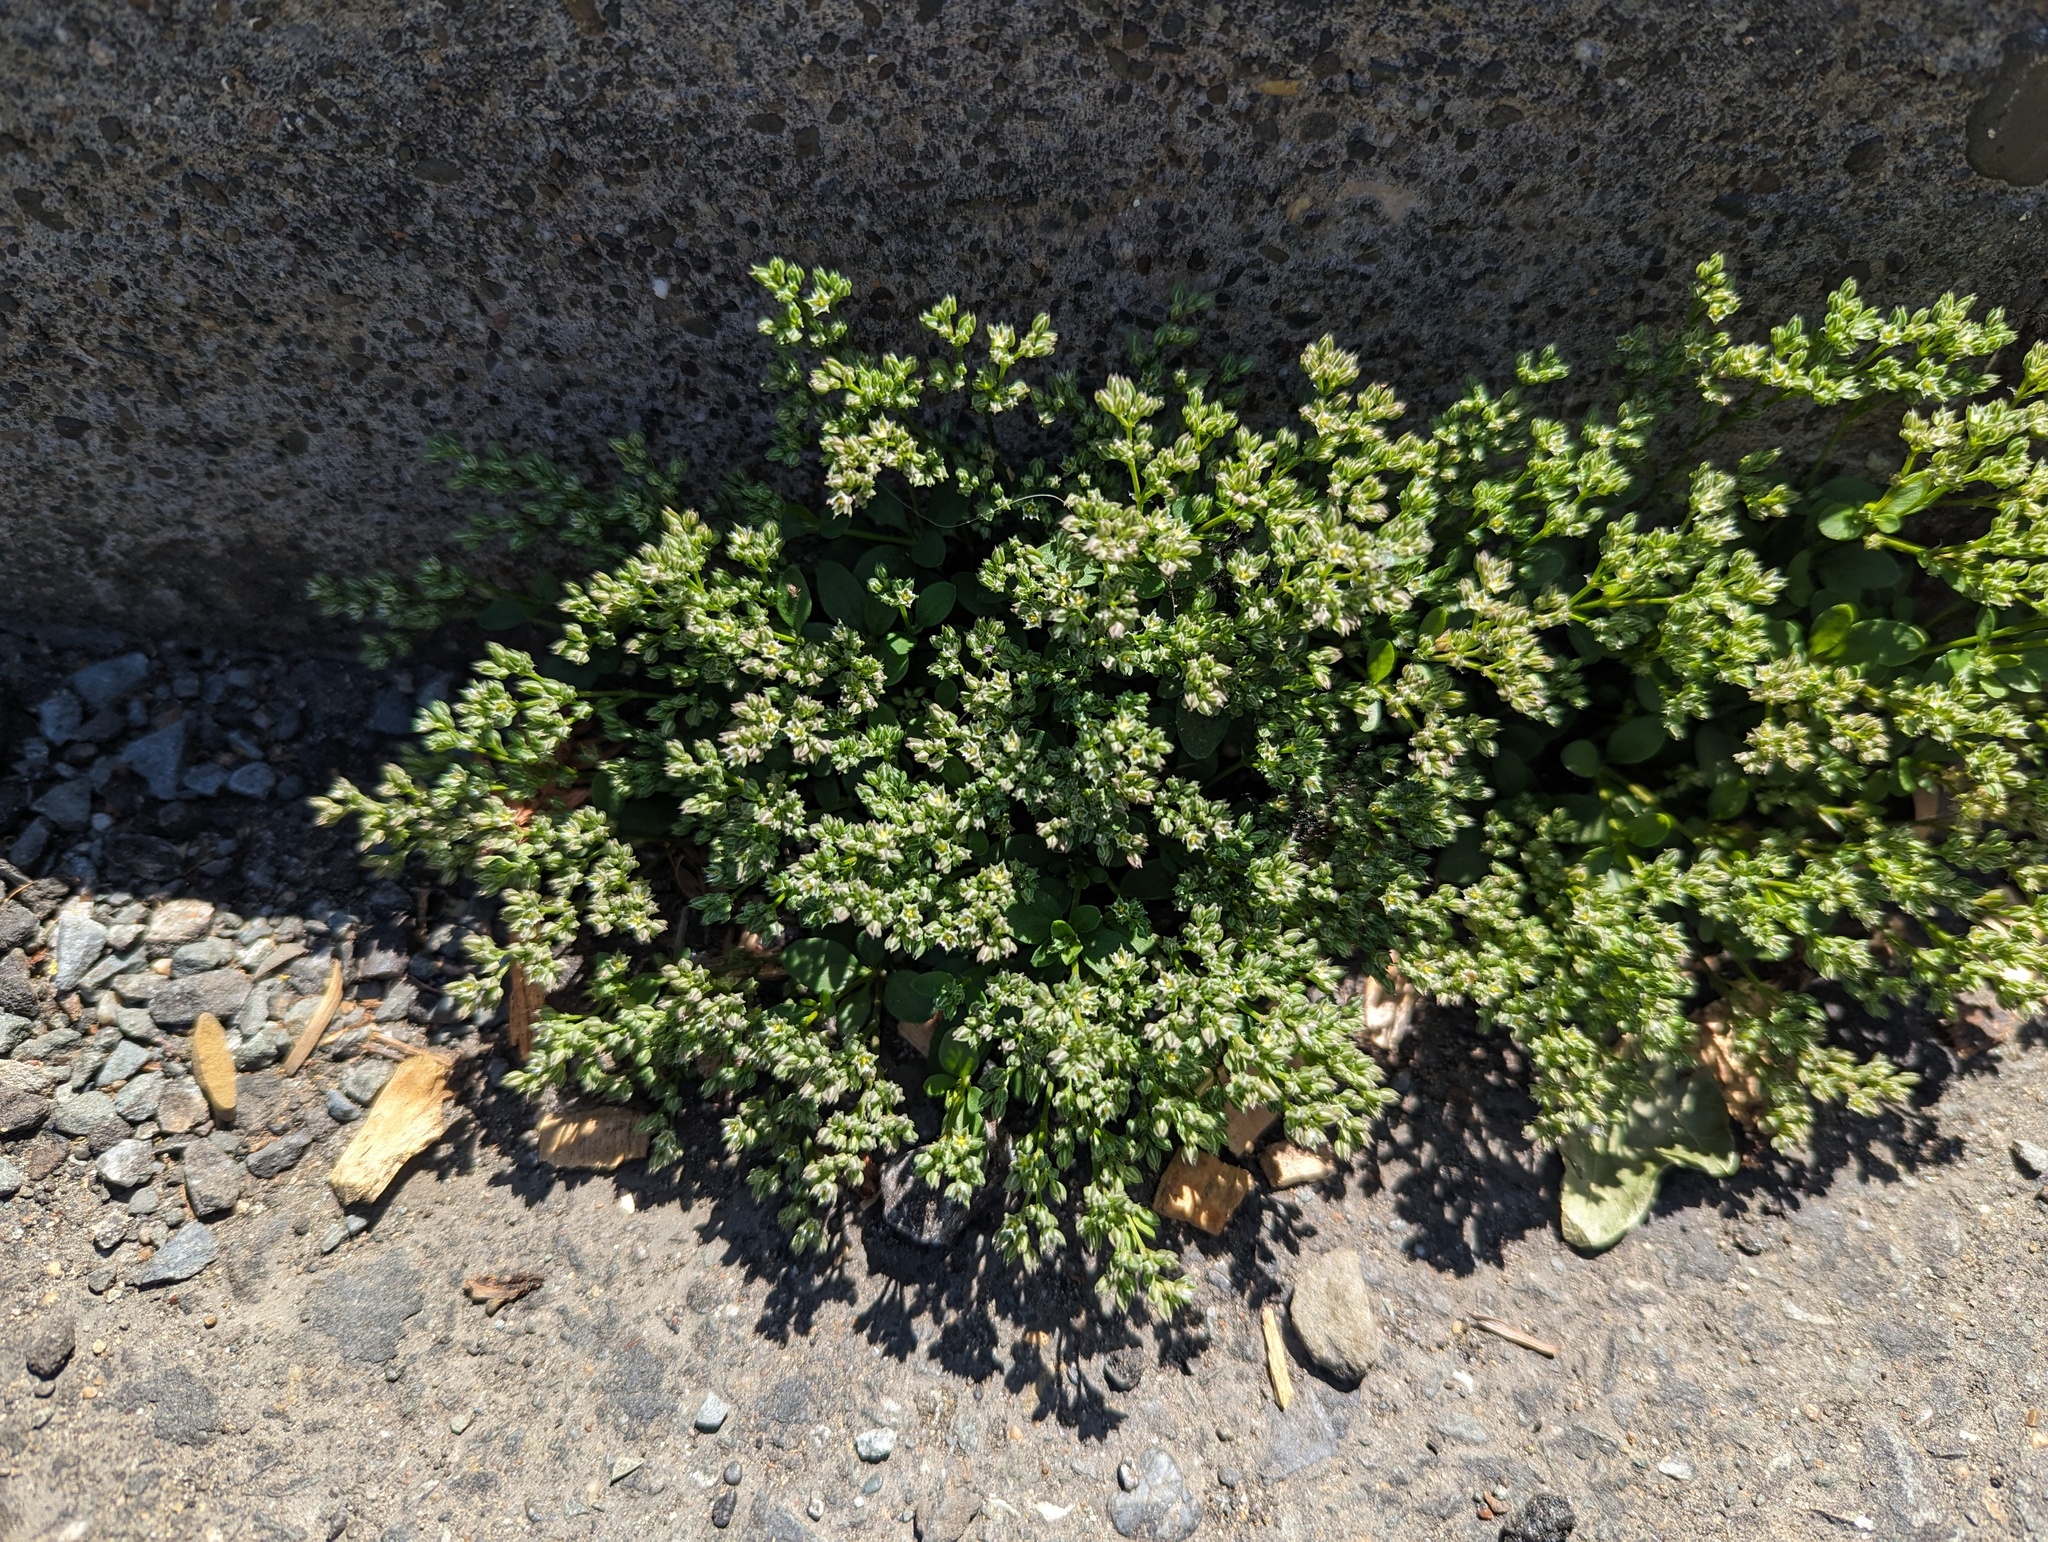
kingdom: Plantae
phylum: Tracheophyta
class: Magnoliopsida
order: Caryophyllales
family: Caryophyllaceae
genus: Polycarpon
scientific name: Polycarpon tetraphyllum
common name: Four-leaved all-seed
